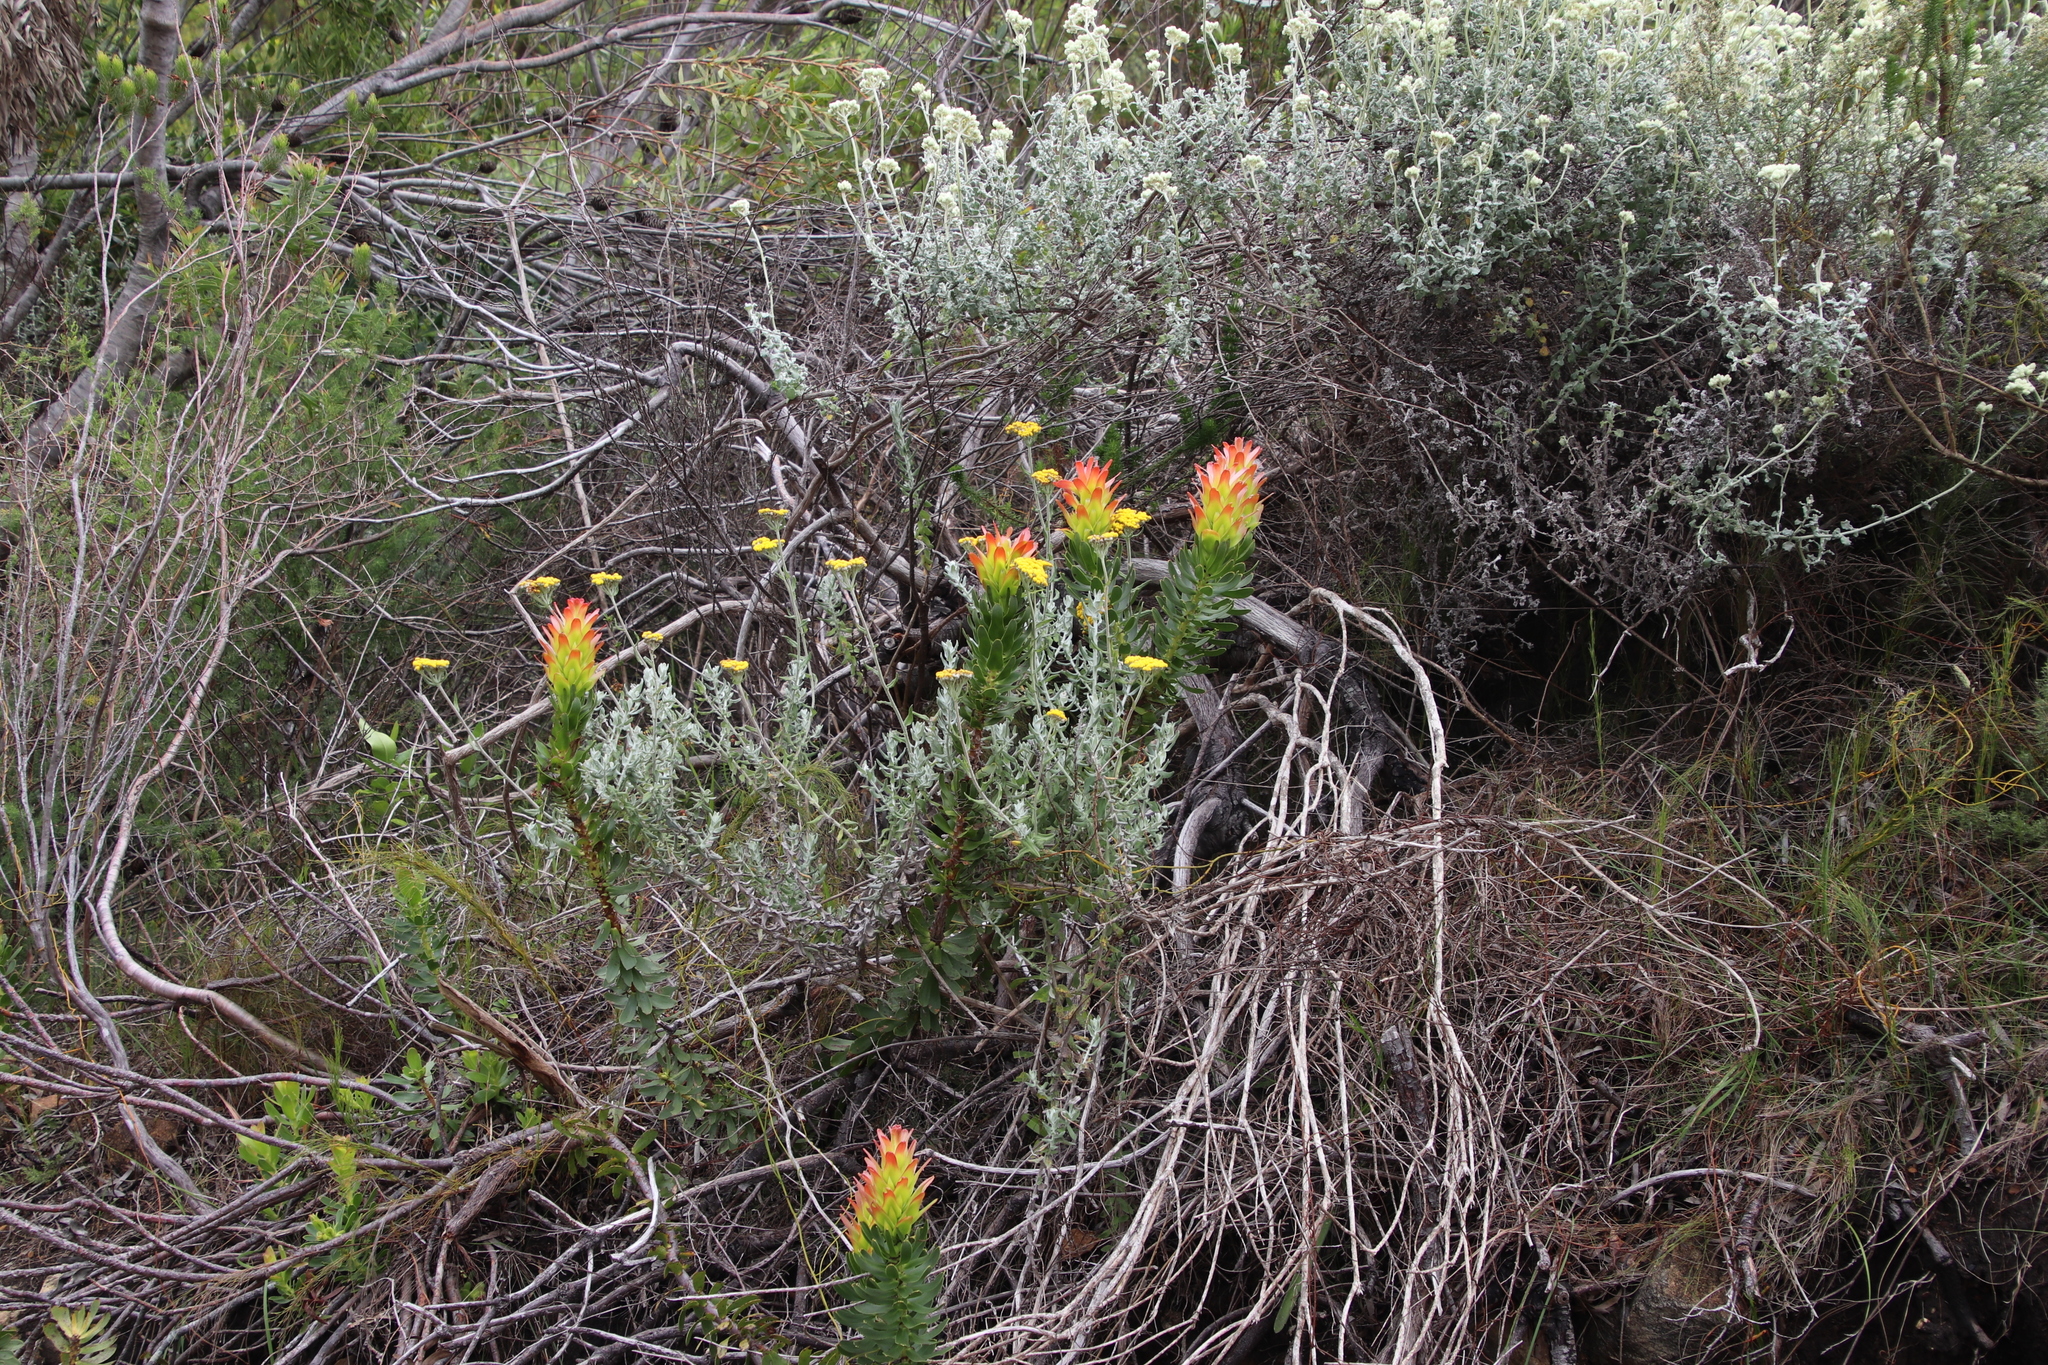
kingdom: Plantae
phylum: Tracheophyta
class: Magnoliopsida
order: Proteales
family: Proteaceae
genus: Mimetes
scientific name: Mimetes cucullatus
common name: Common pagoda
